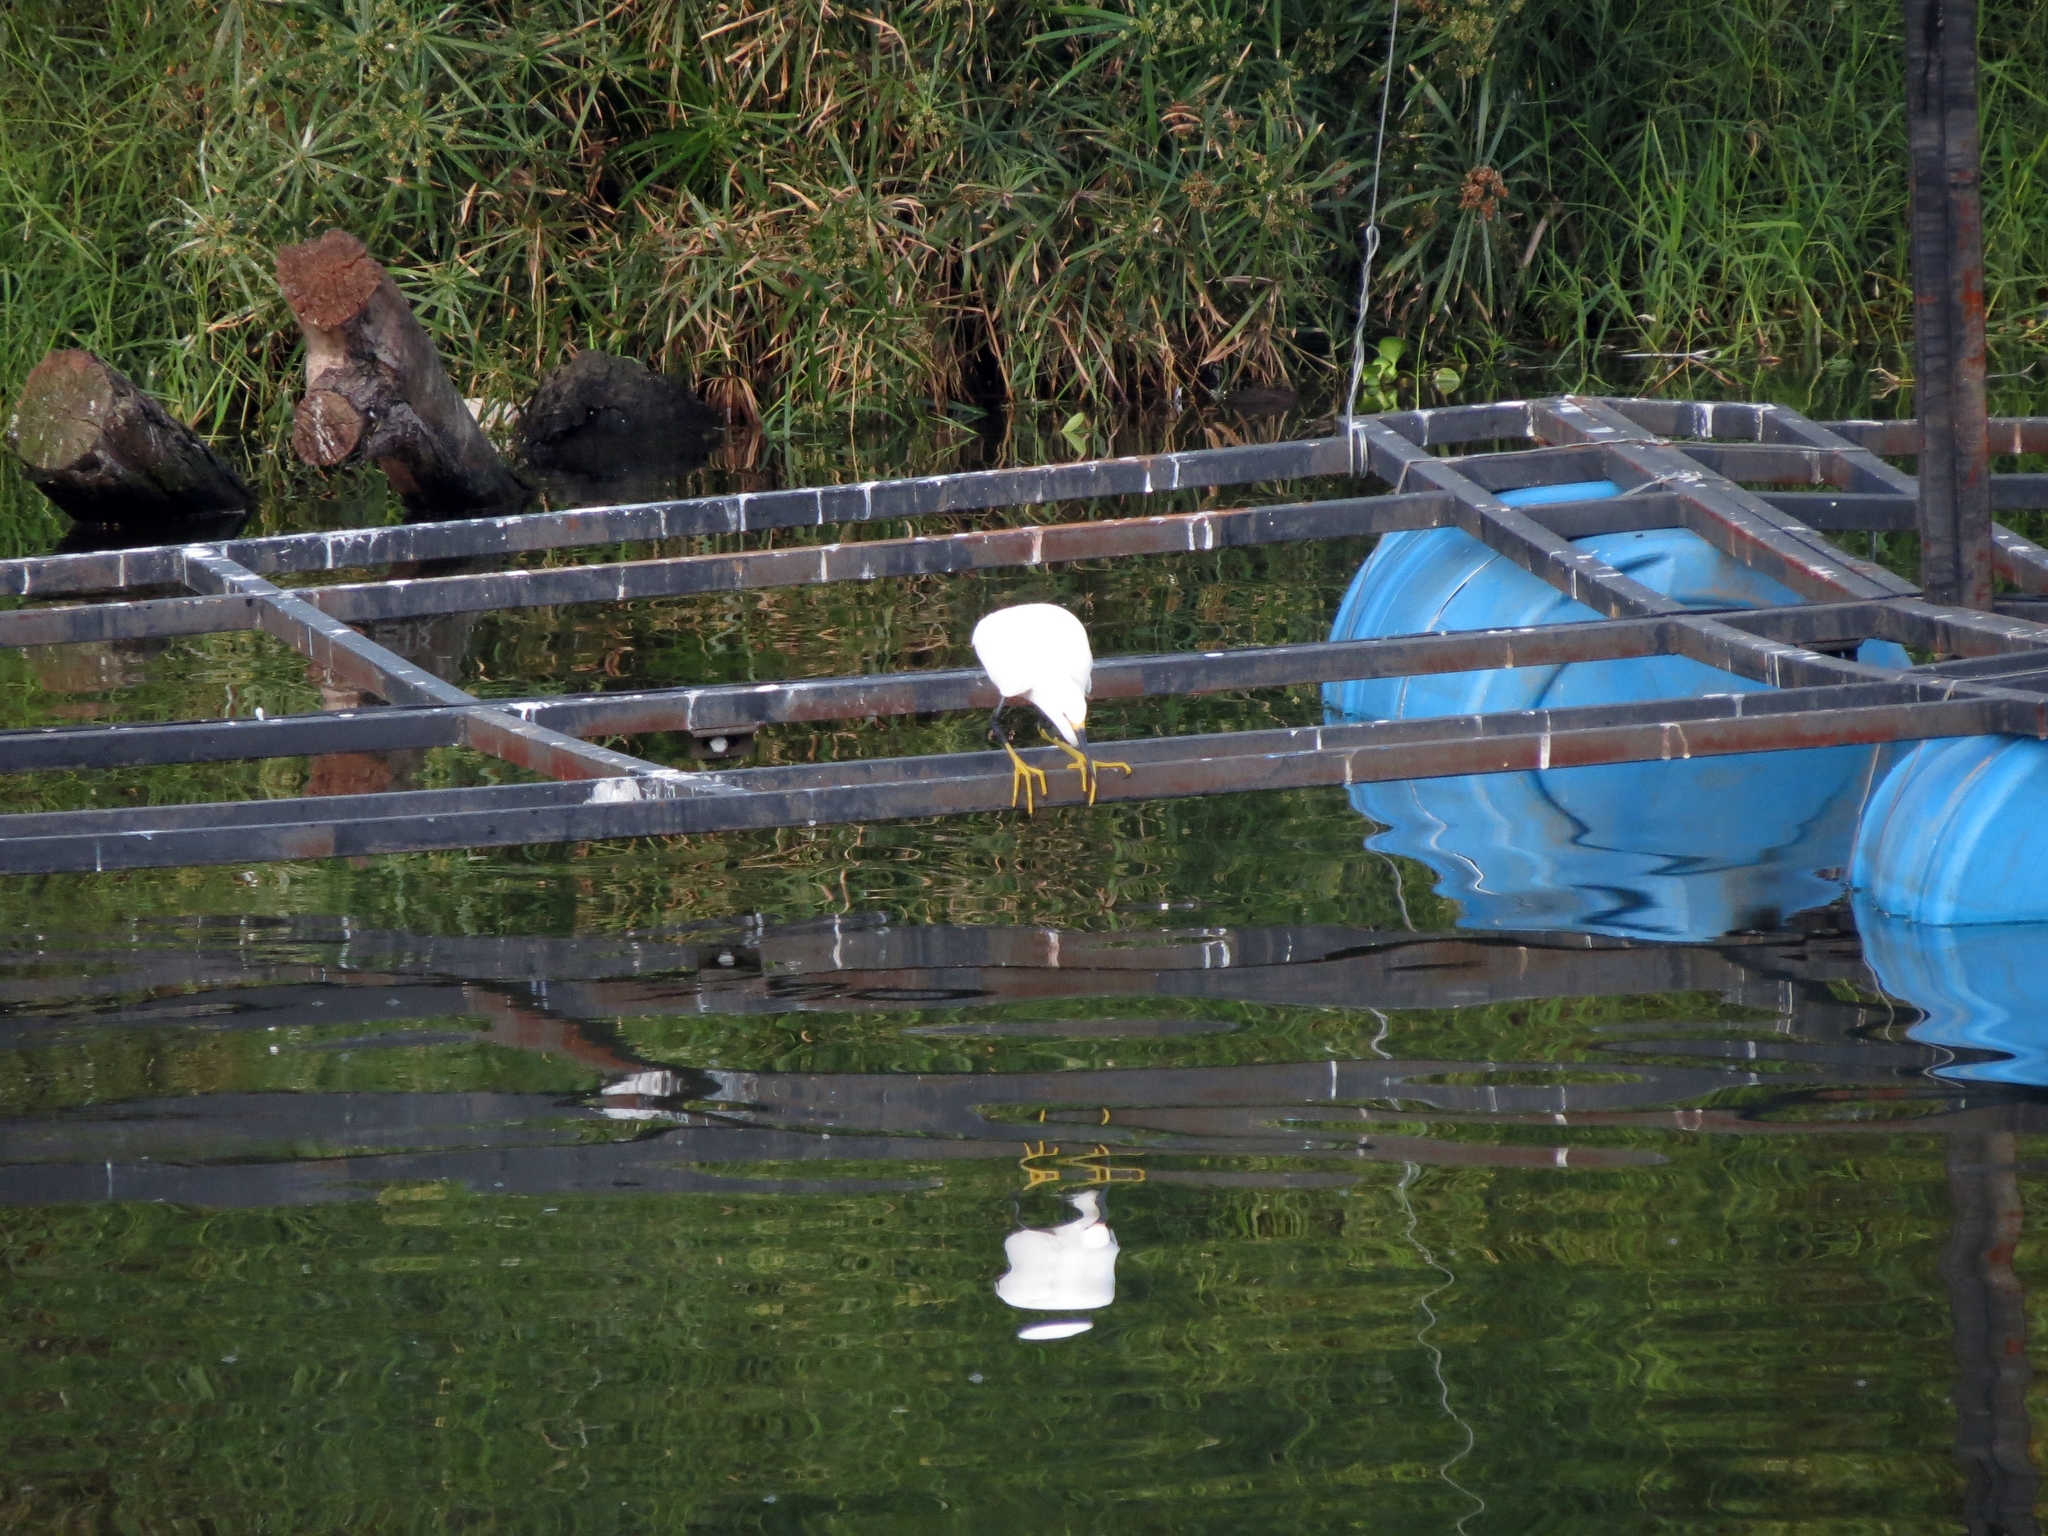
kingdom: Animalia
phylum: Chordata
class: Aves
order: Pelecaniformes
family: Ardeidae
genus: Egretta
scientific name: Egretta thula
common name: Snowy egret
